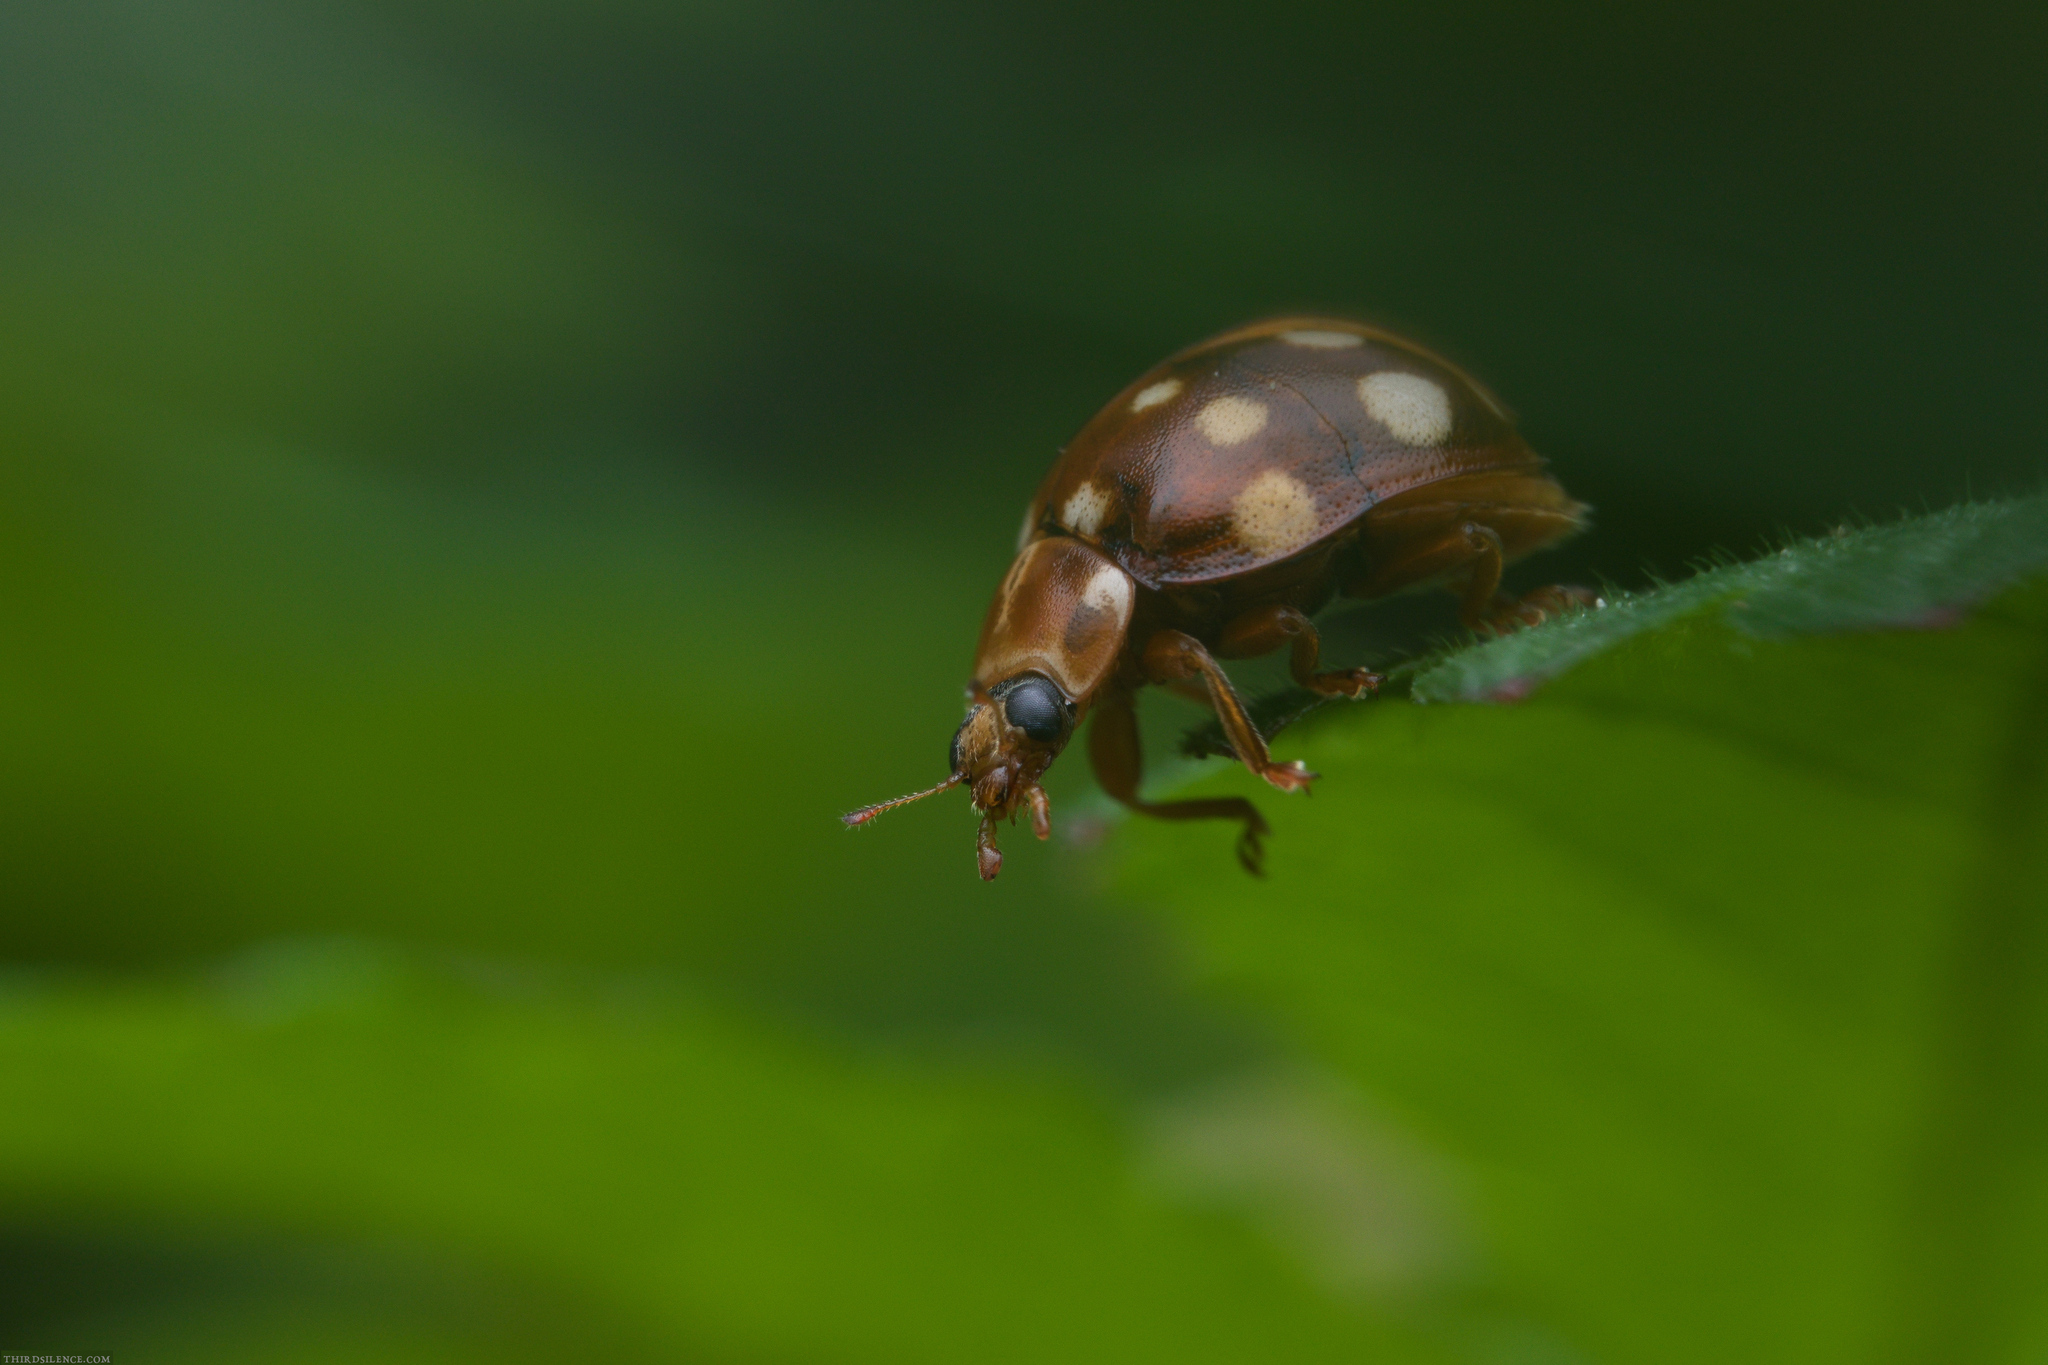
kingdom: Animalia
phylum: Arthropoda
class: Insecta
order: Coleoptera
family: Coccinellidae
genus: Calvia
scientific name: Calvia quatuordecimguttata
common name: Cream-spot ladybird
